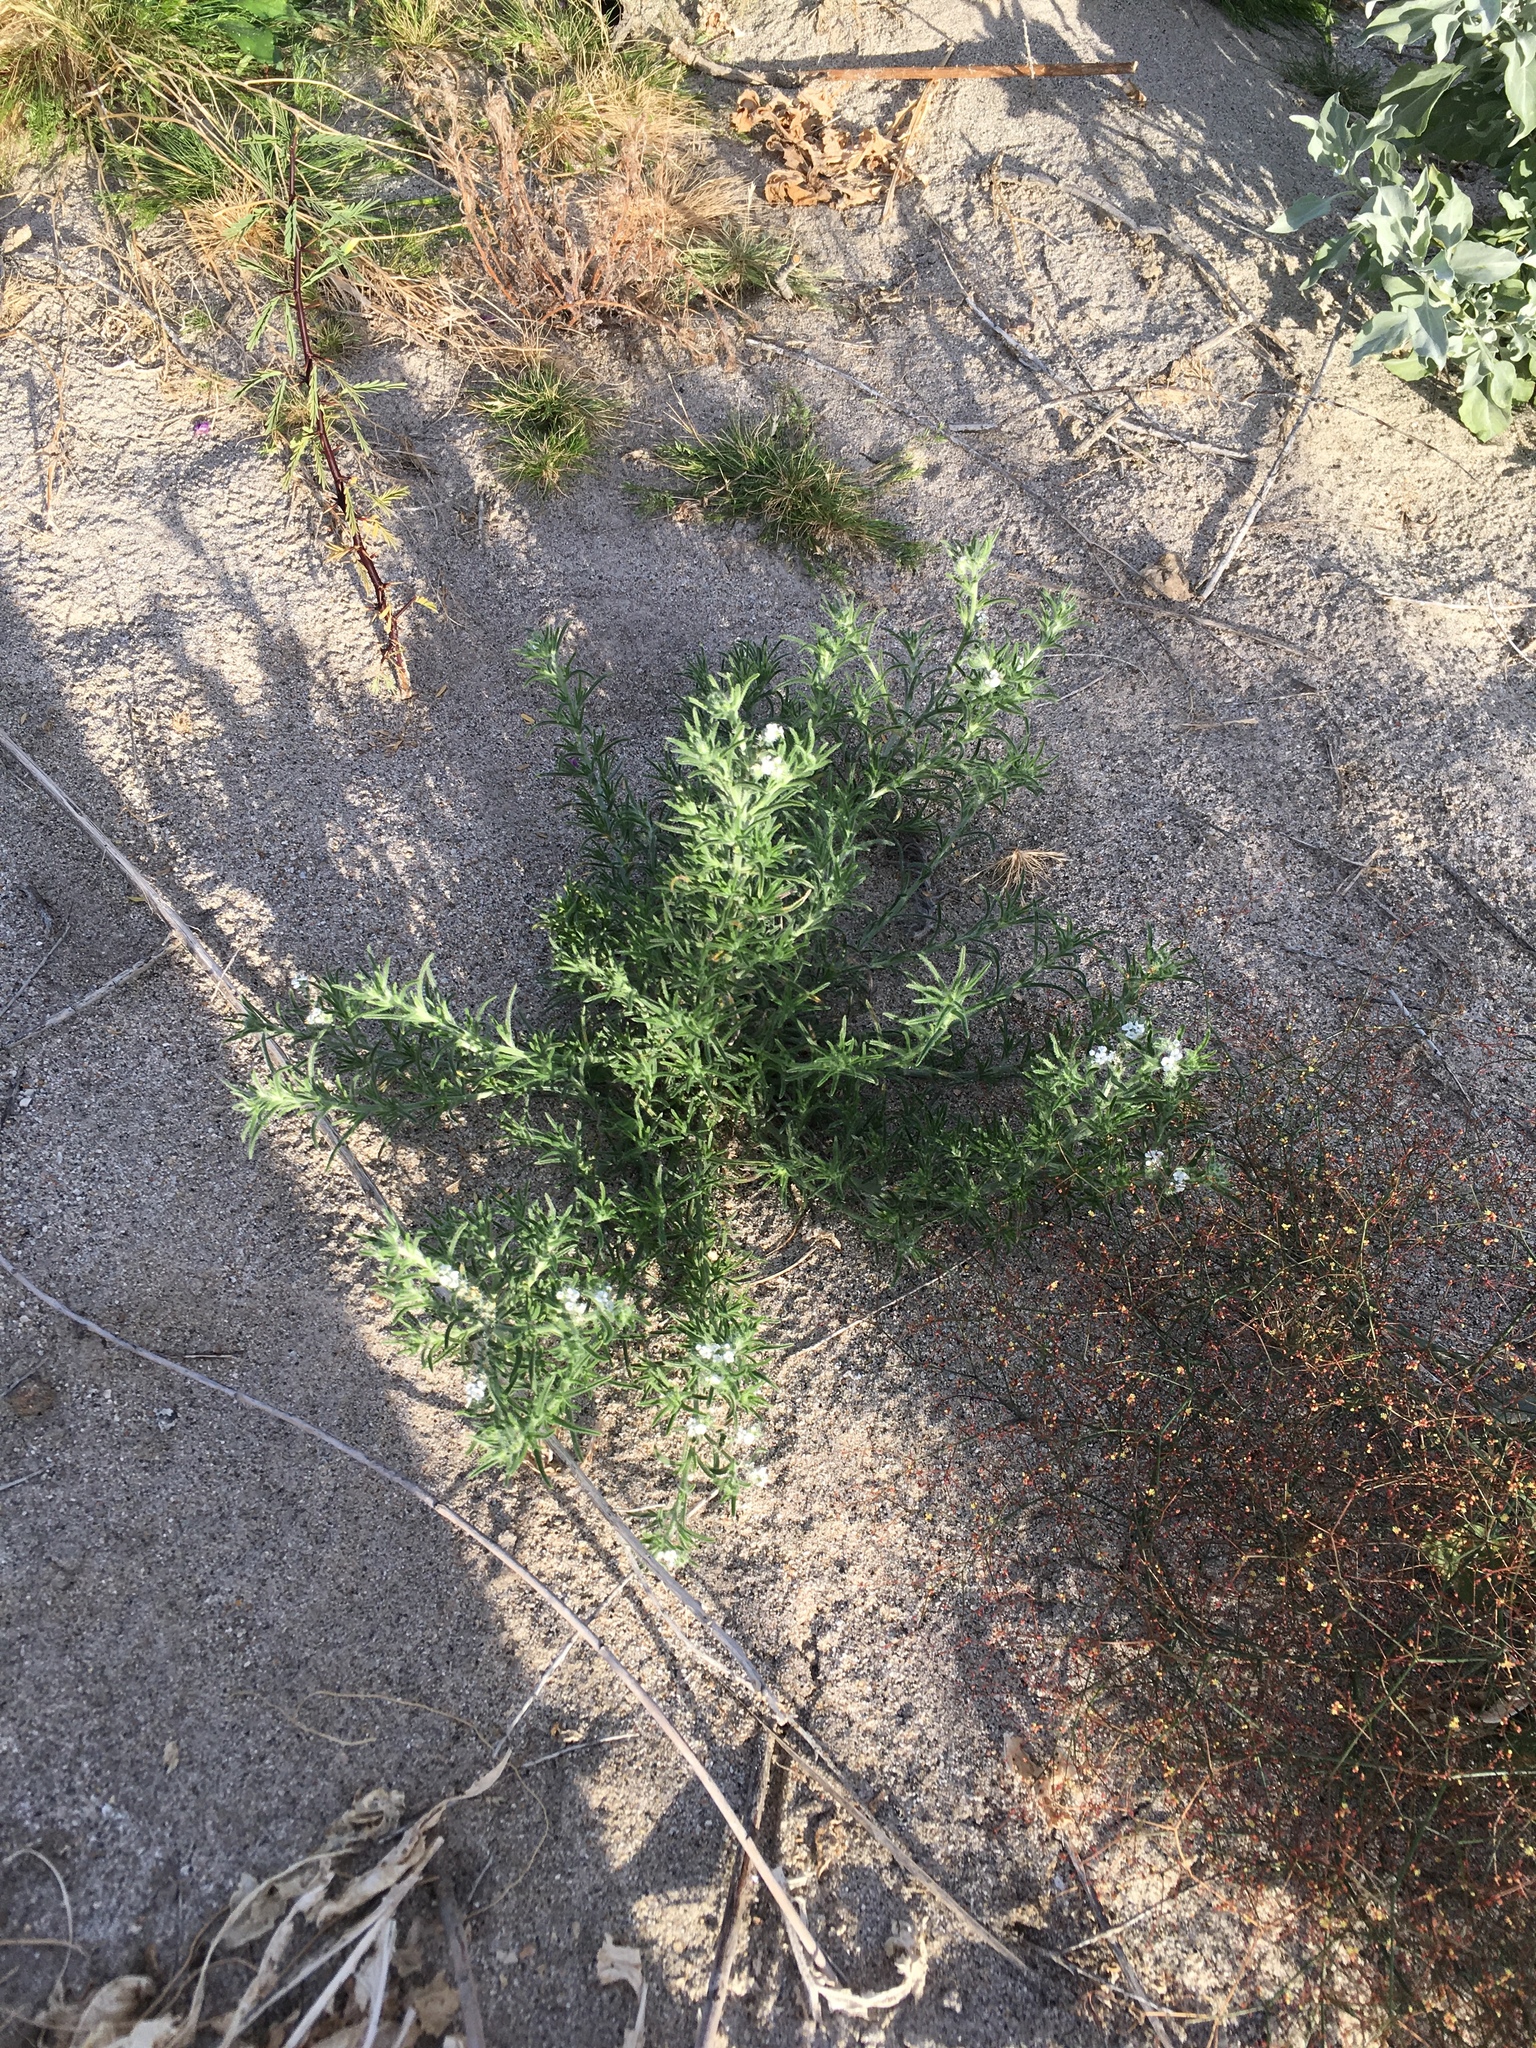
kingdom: Plantae
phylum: Tracheophyta
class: Magnoliopsida
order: Boraginales
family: Boraginaceae
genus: Johnstonella
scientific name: Johnstonella angustifolia
